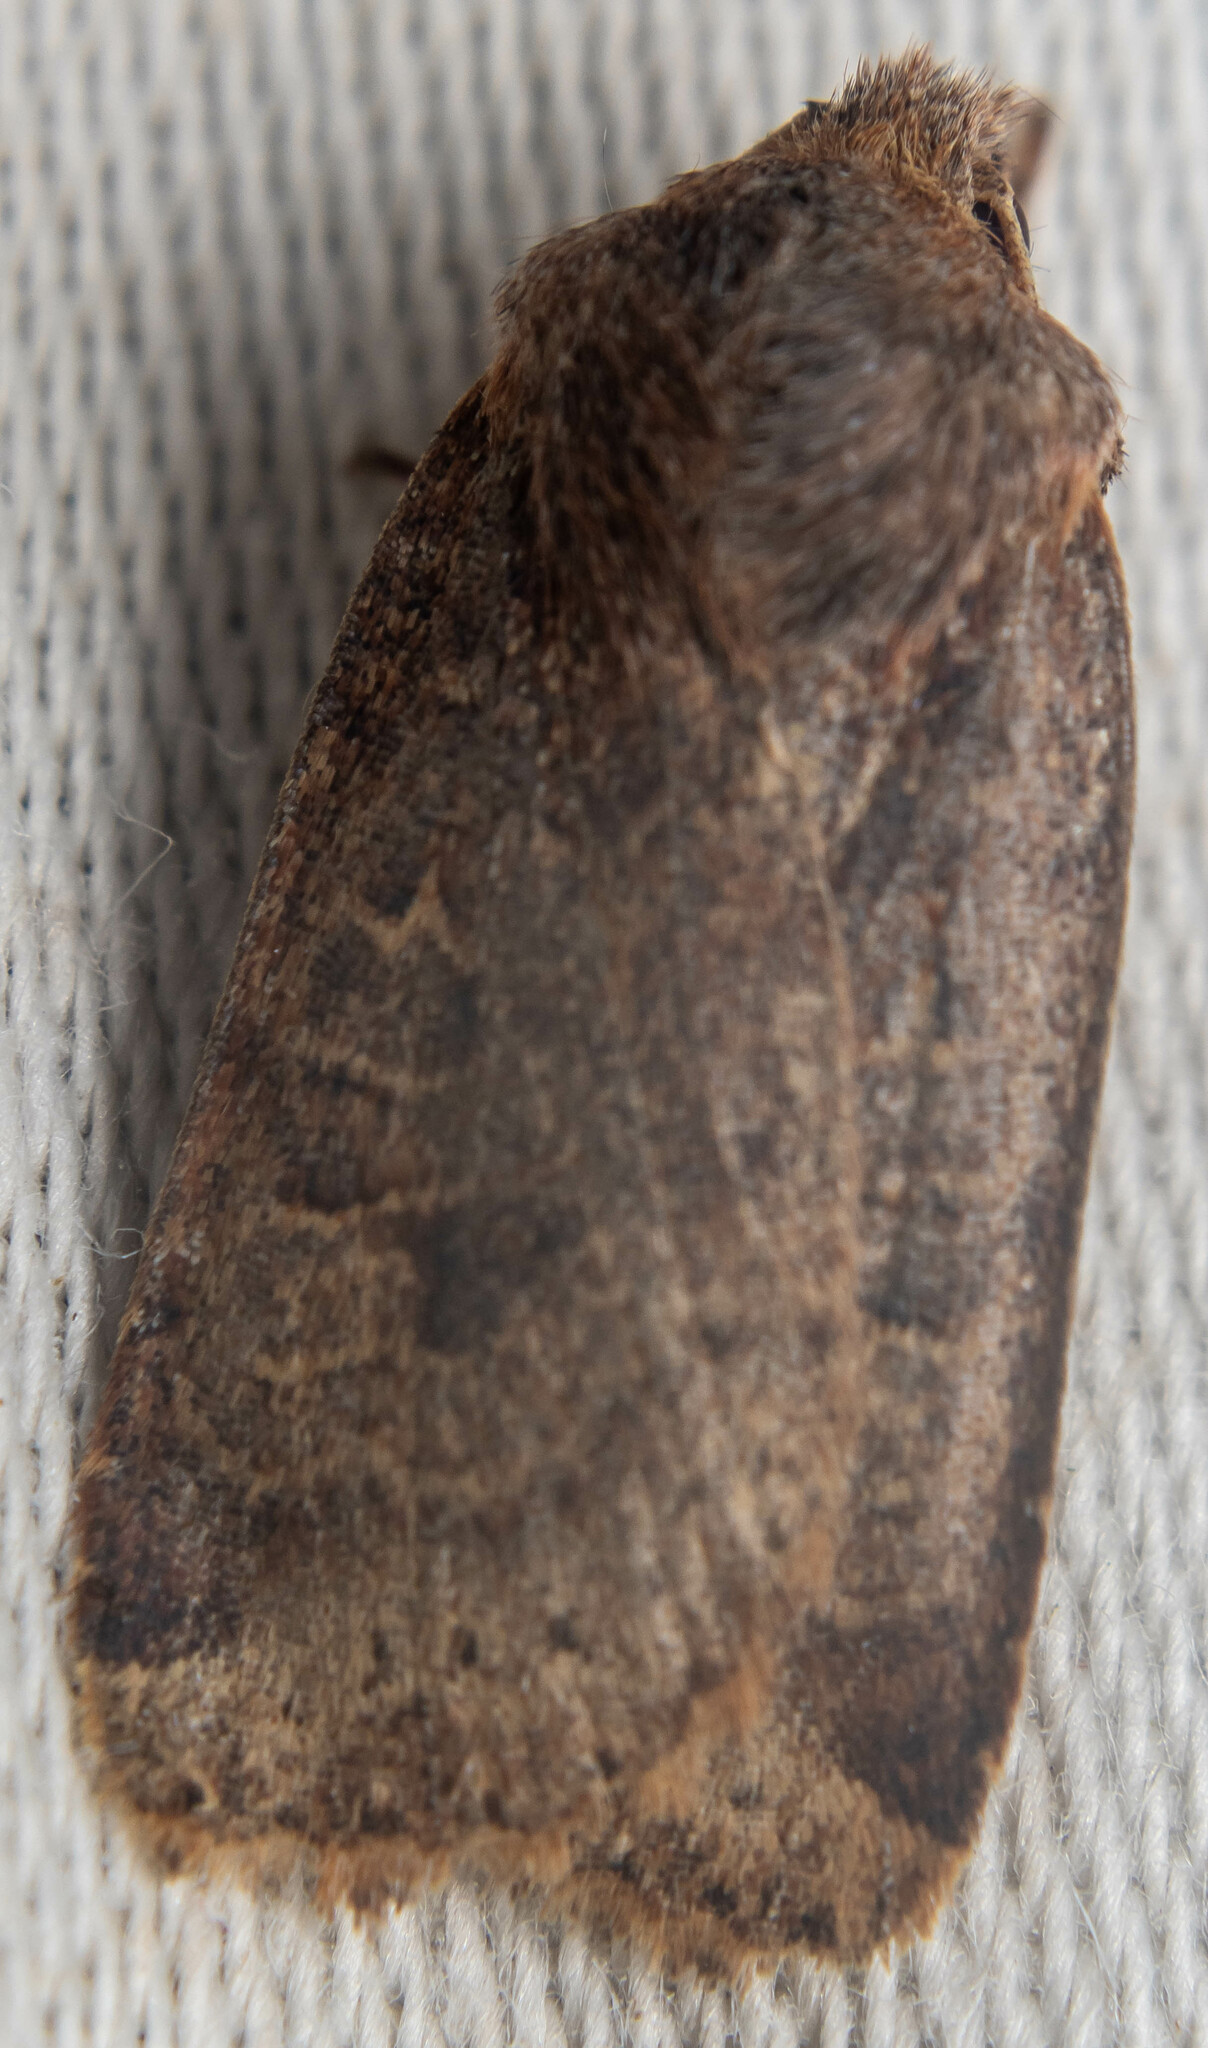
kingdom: Animalia
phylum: Arthropoda
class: Insecta
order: Lepidoptera
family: Noctuidae
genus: Conistra
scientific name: Conistra vaccinii
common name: Chestnut
